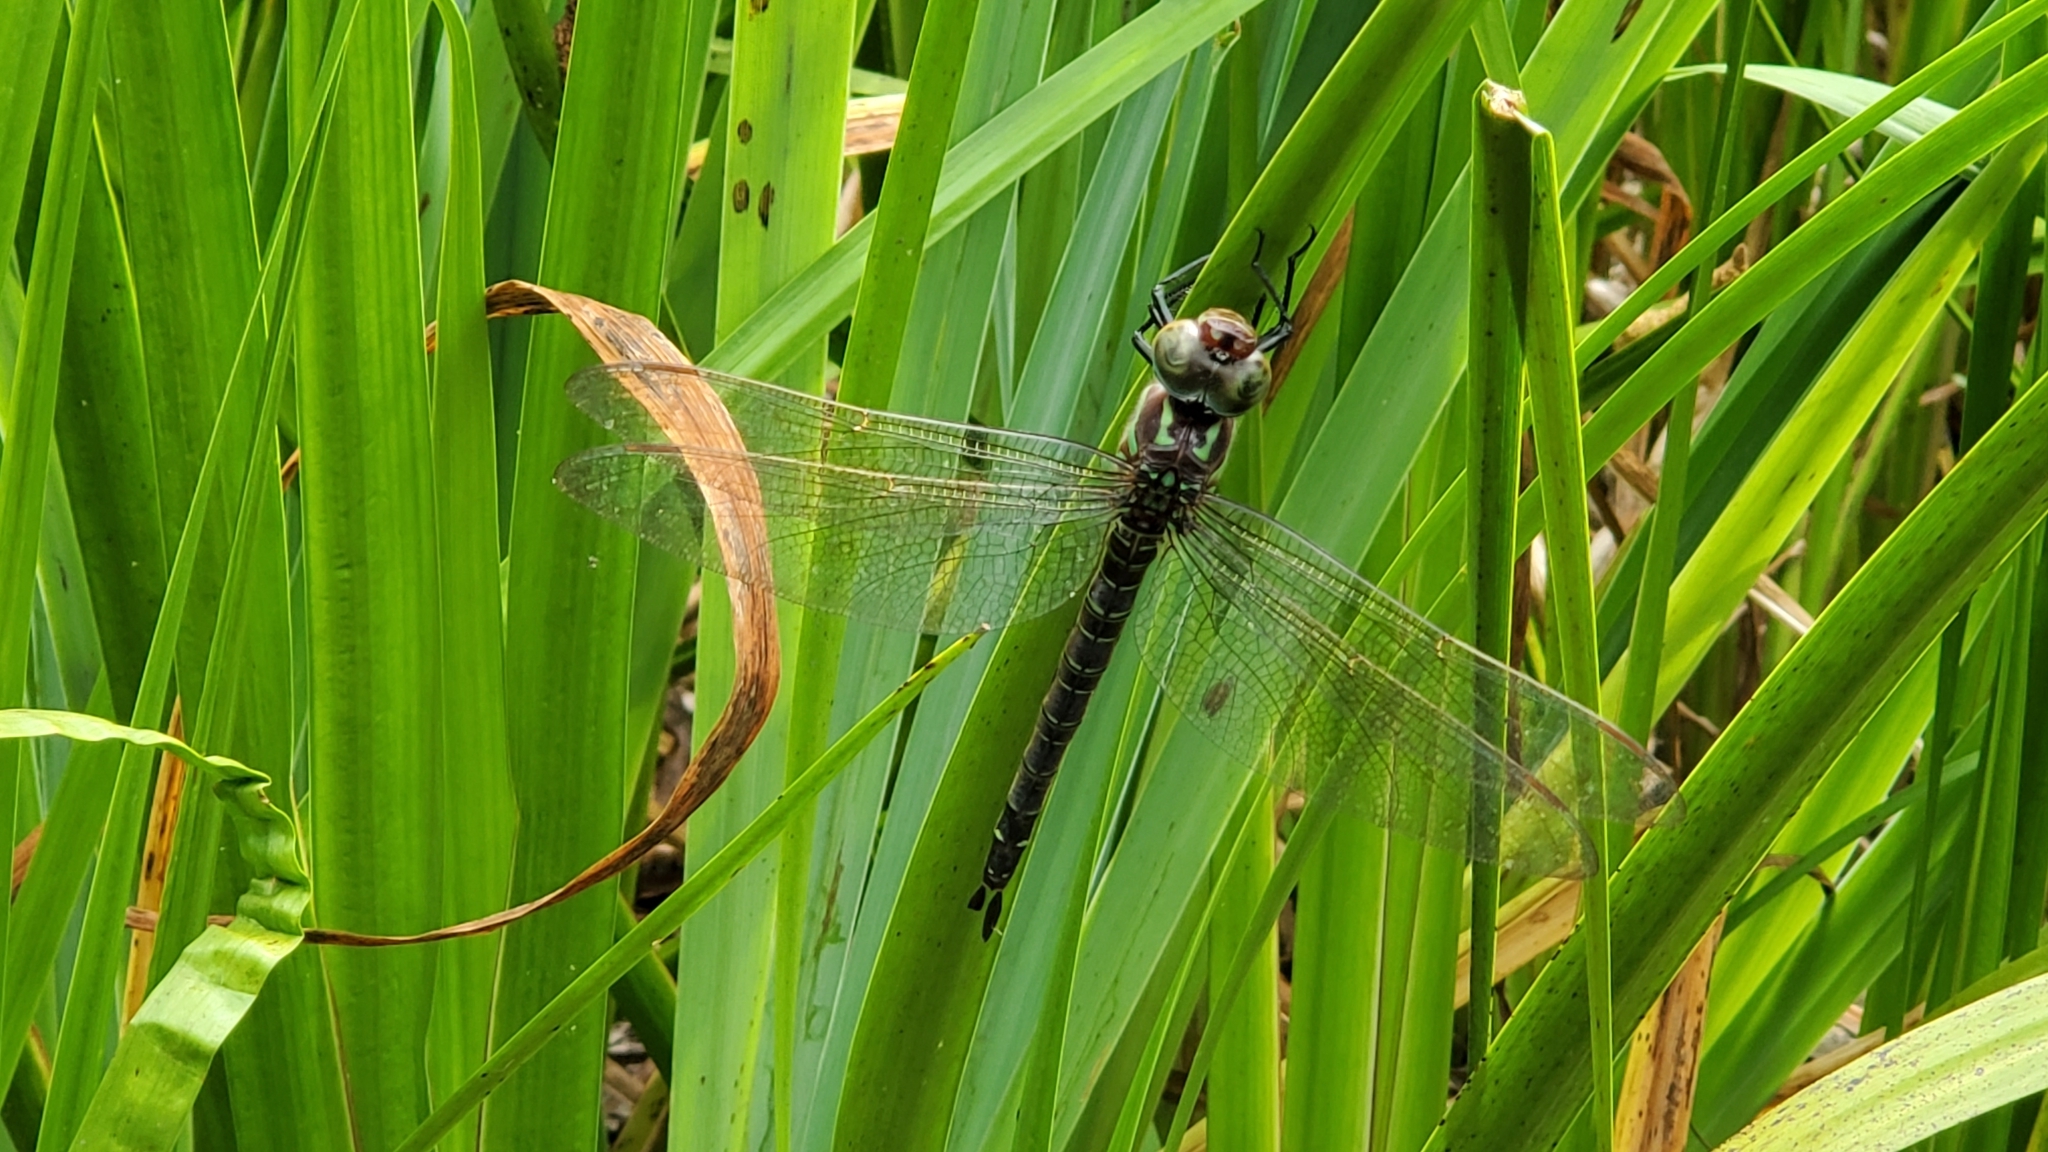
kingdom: Animalia
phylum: Arthropoda
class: Insecta
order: Odonata
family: Aeshnidae
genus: Epiaeschna
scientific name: Epiaeschna heros
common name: Swamp darner
